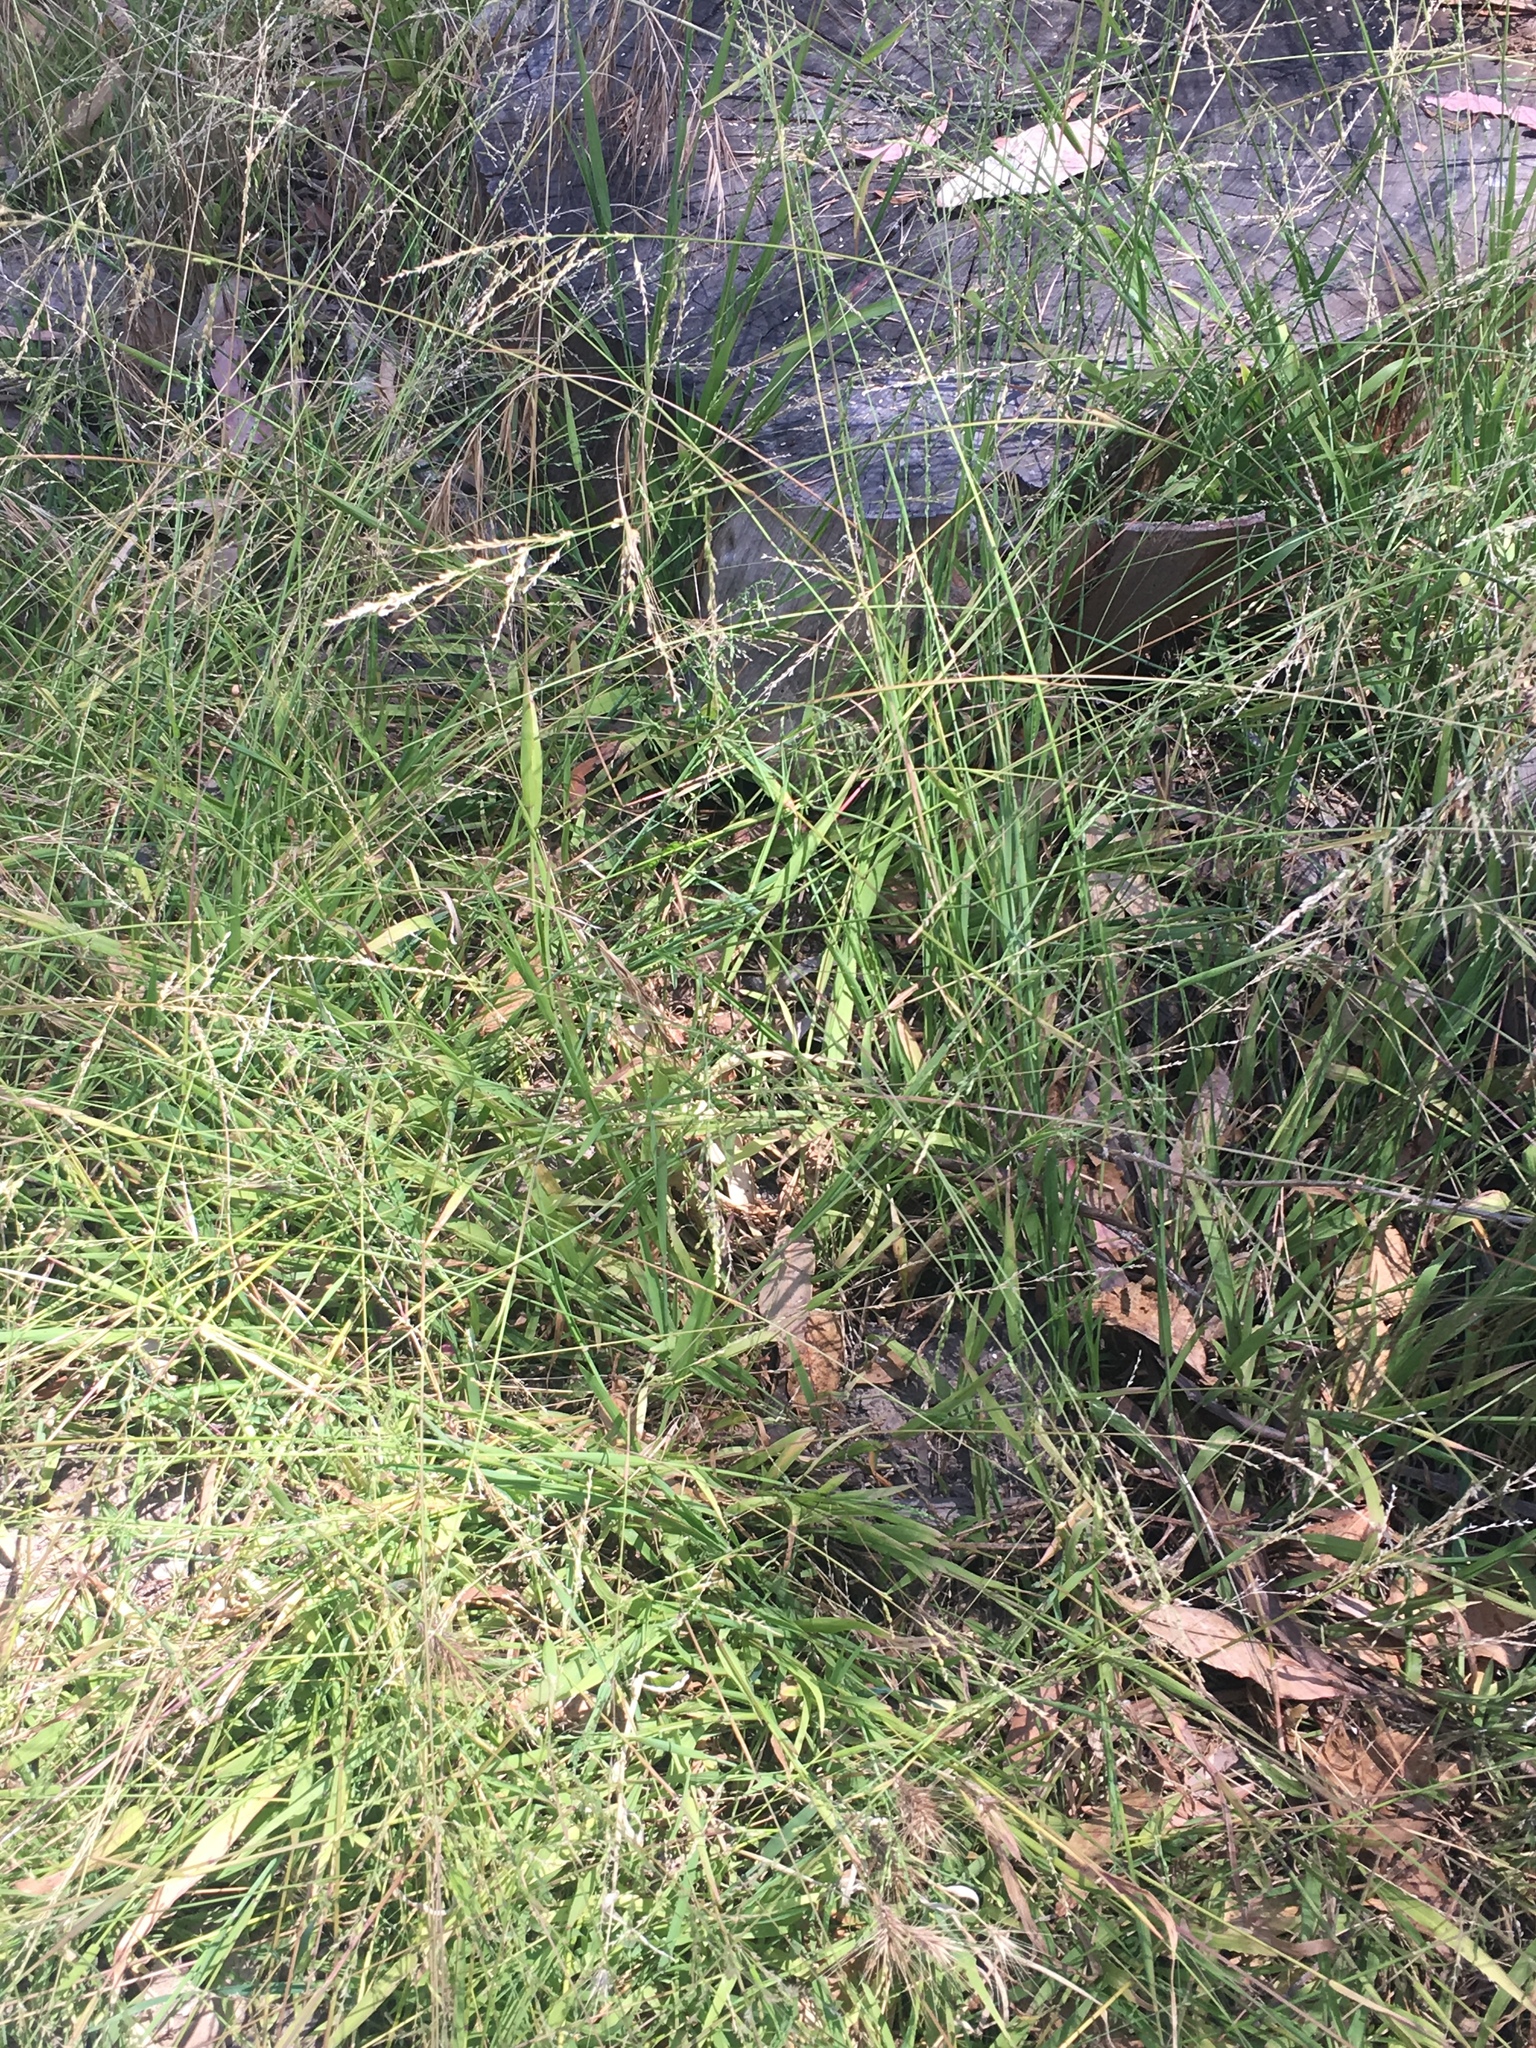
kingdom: Plantae
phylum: Tracheophyta
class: Liliopsida
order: Poales
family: Poaceae
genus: Ehrharta
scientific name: Ehrharta erecta
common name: Panic veldtgrass
